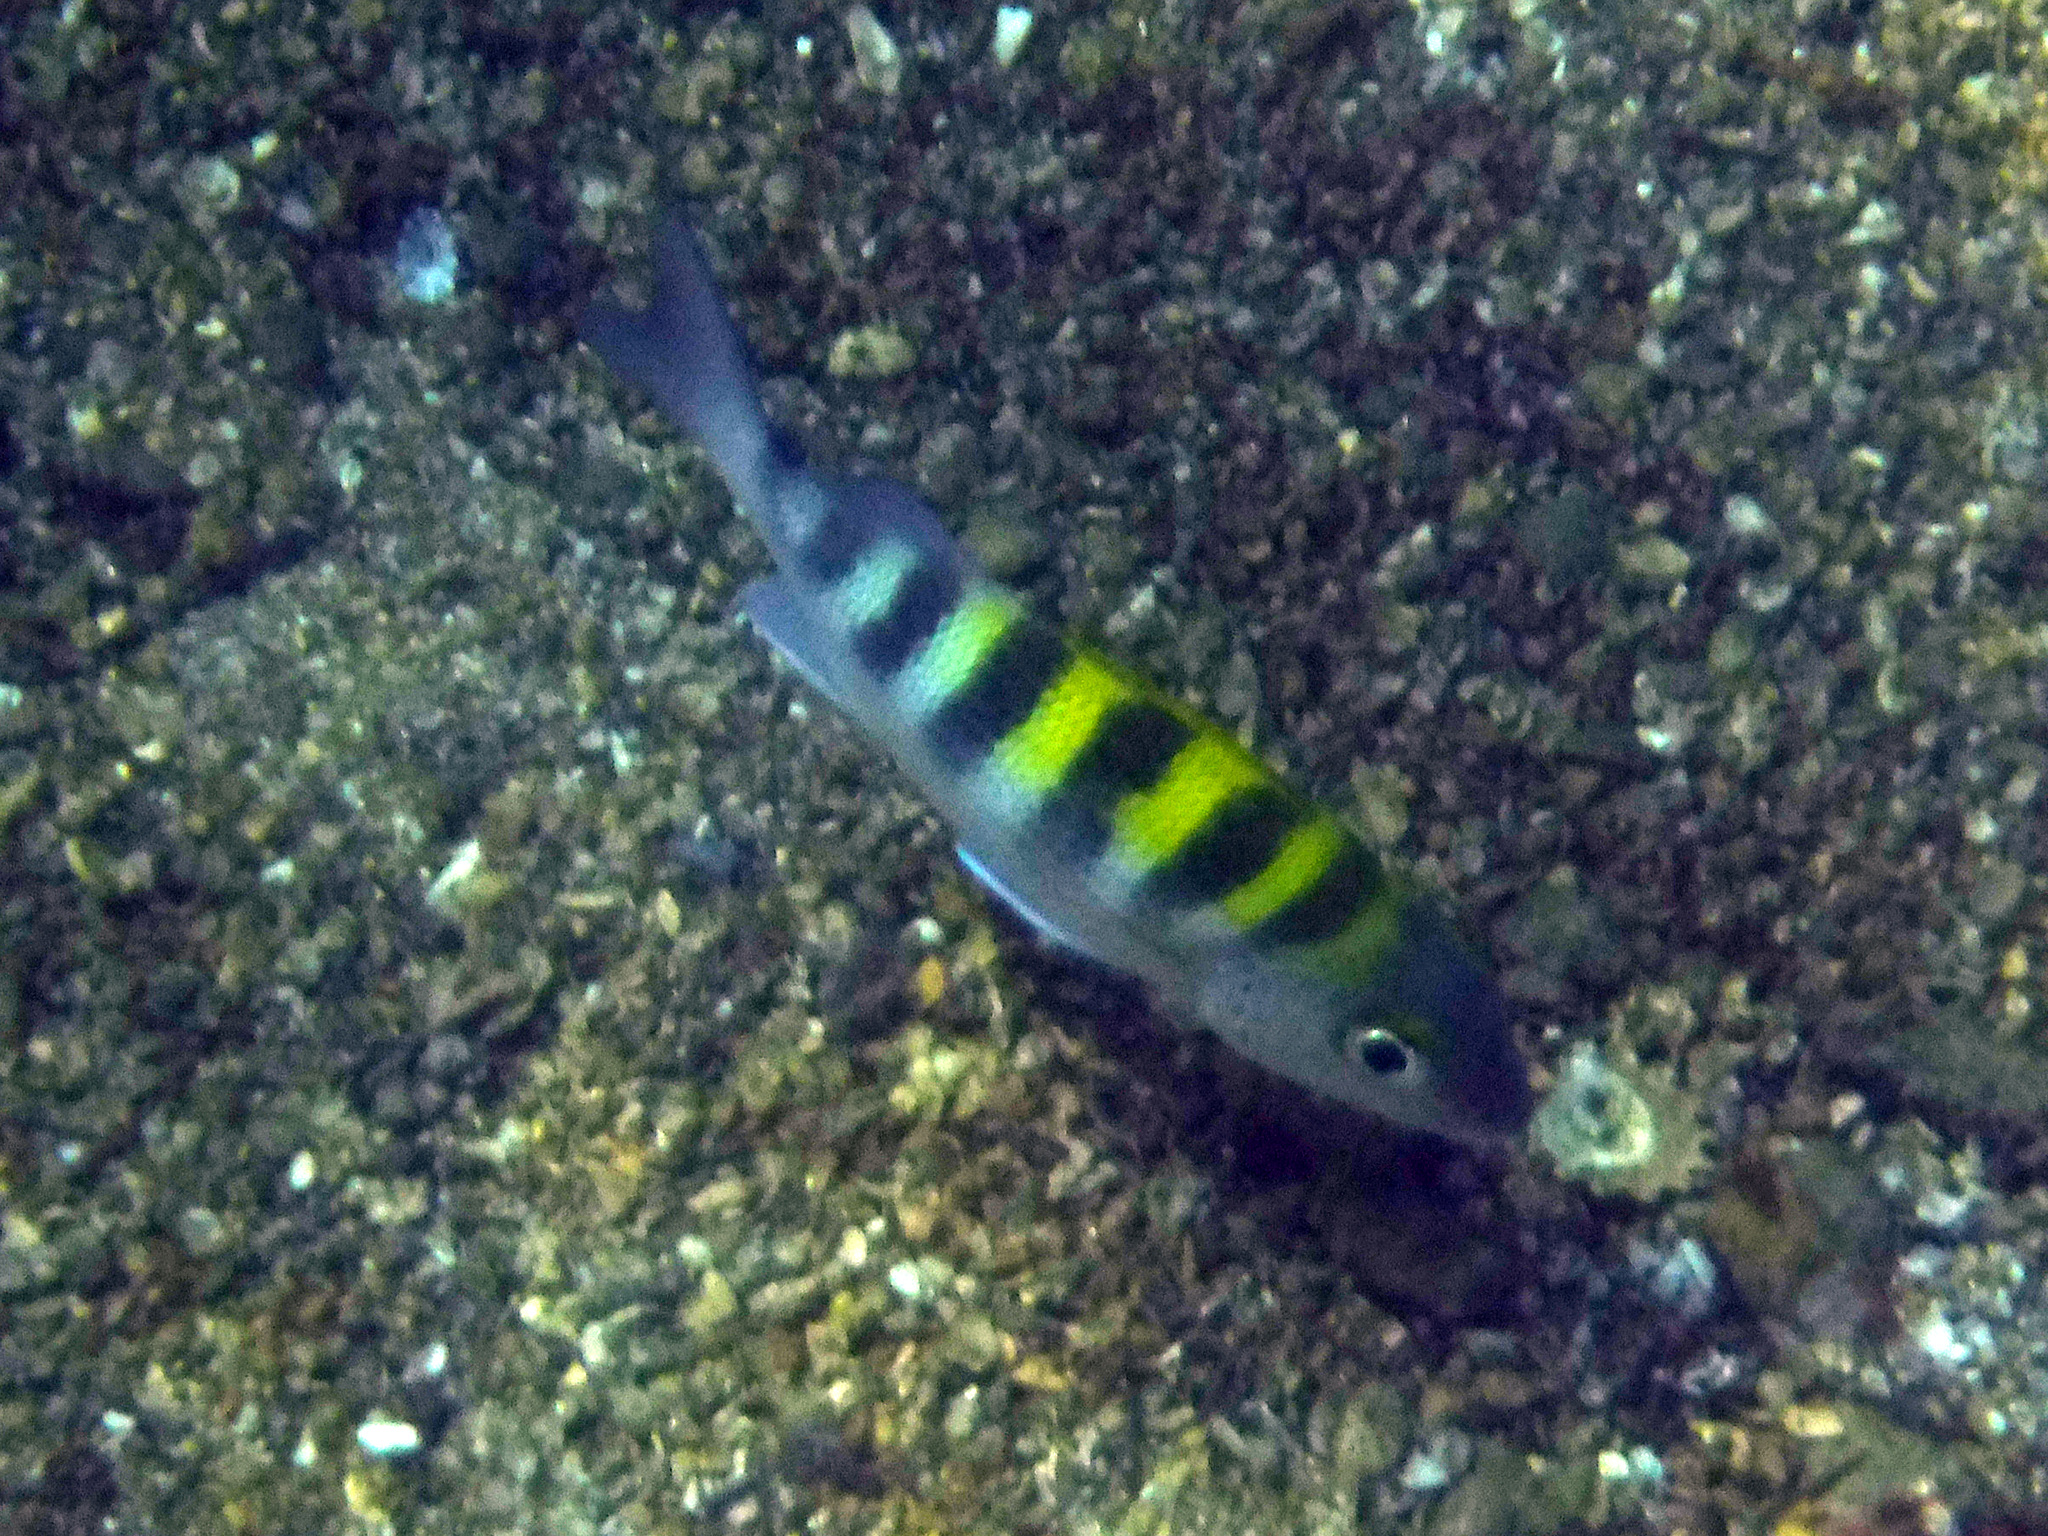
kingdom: Animalia
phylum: Chordata
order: Perciformes
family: Haemulidae
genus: Haemulon
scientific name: Haemulon sexfasciatum
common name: Graybar grunt
